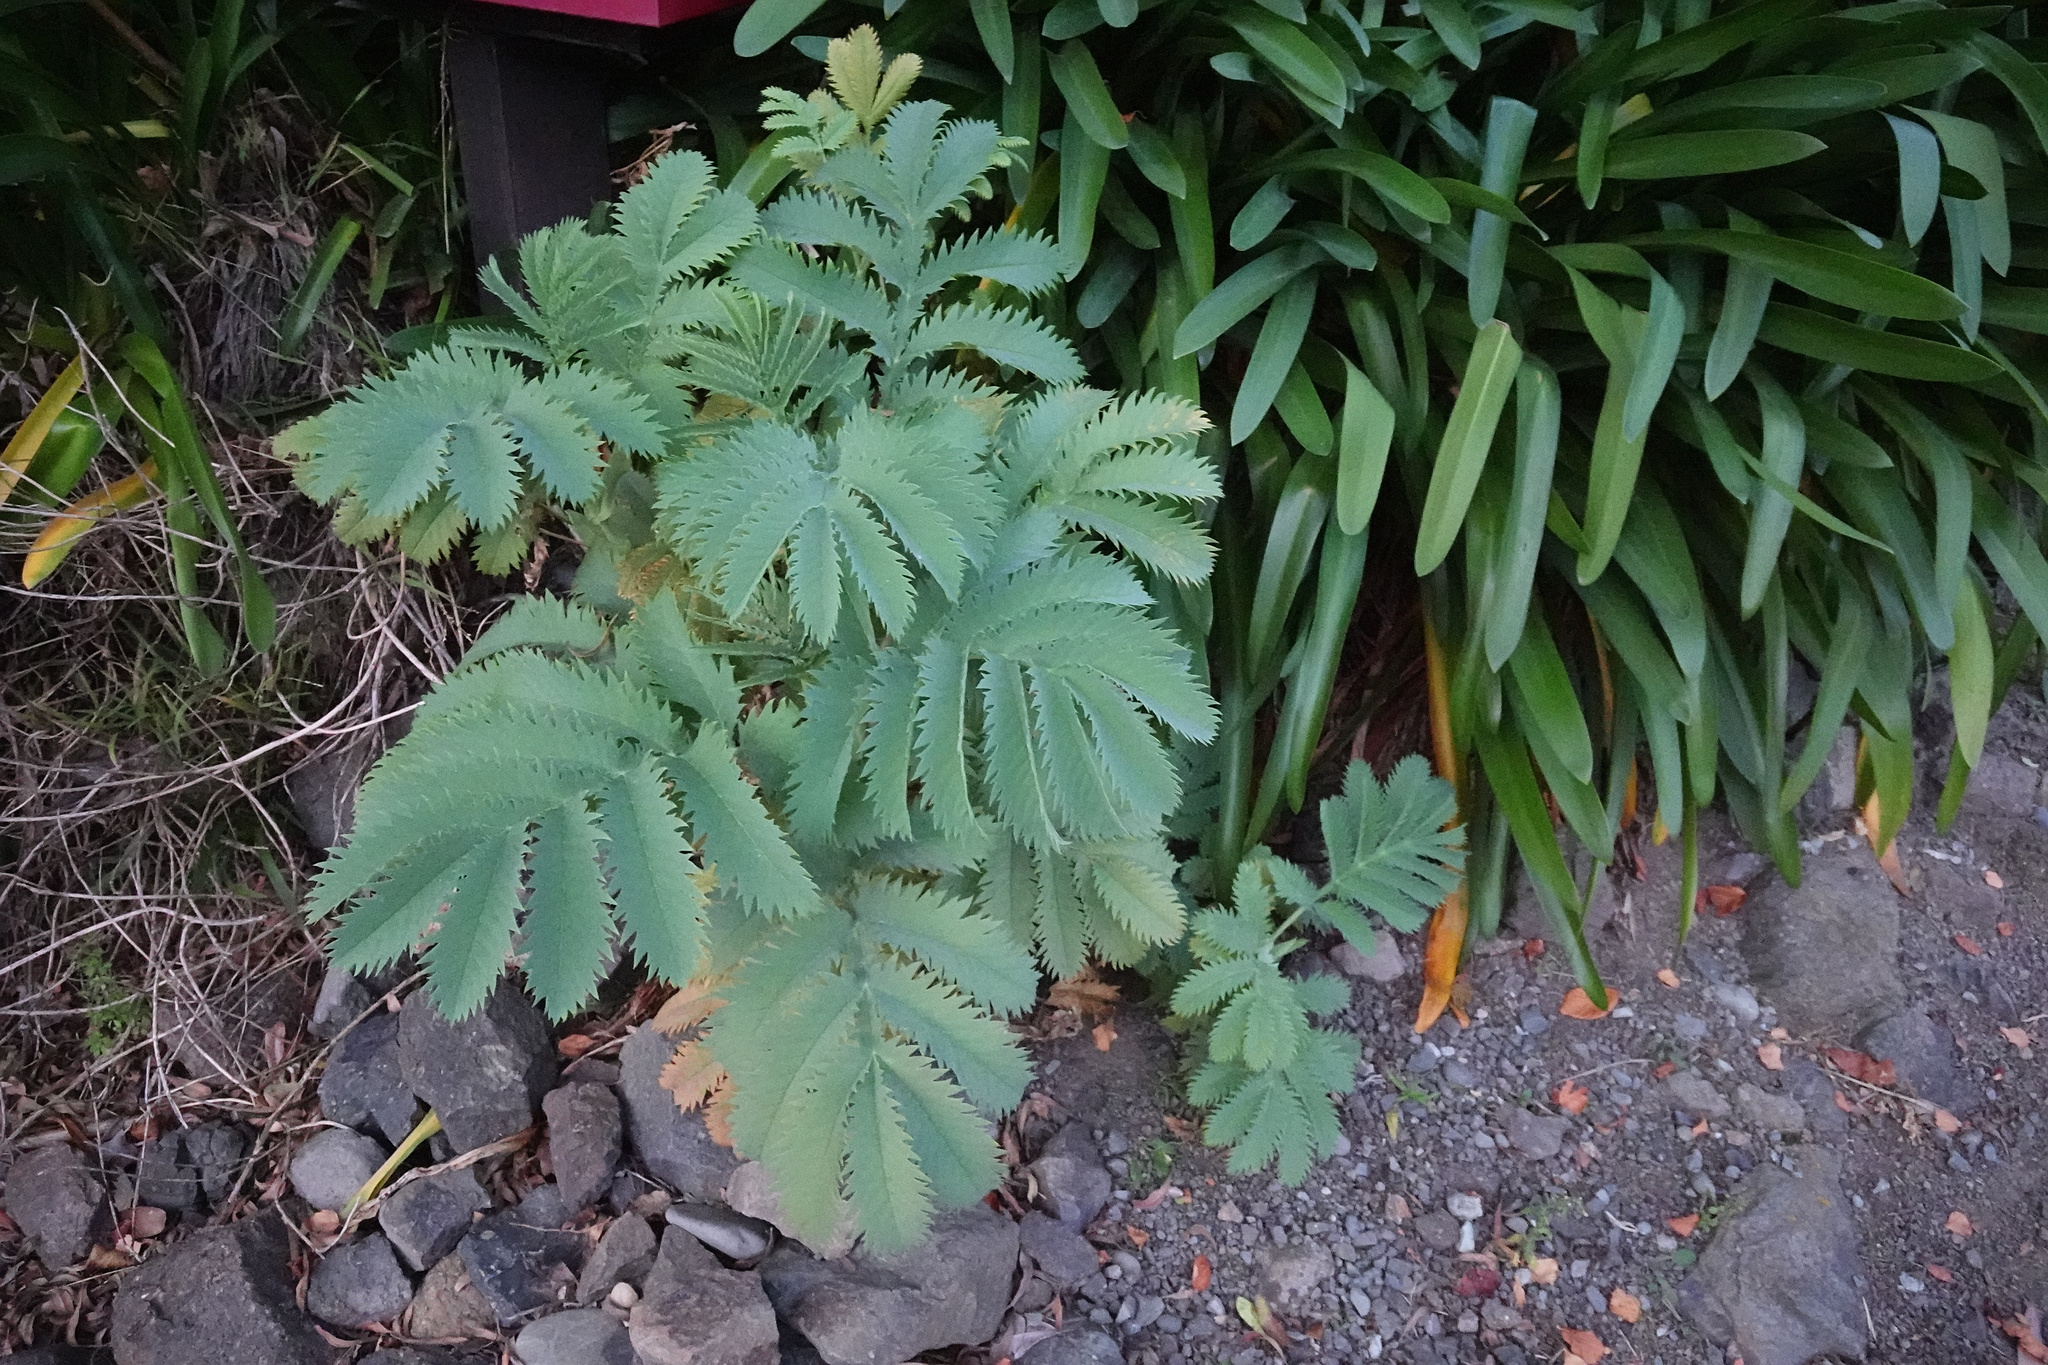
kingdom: Plantae
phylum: Tracheophyta
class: Magnoliopsida
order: Geraniales
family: Melianthaceae
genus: Melianthus
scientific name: Melianthus major
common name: Honey-flower
